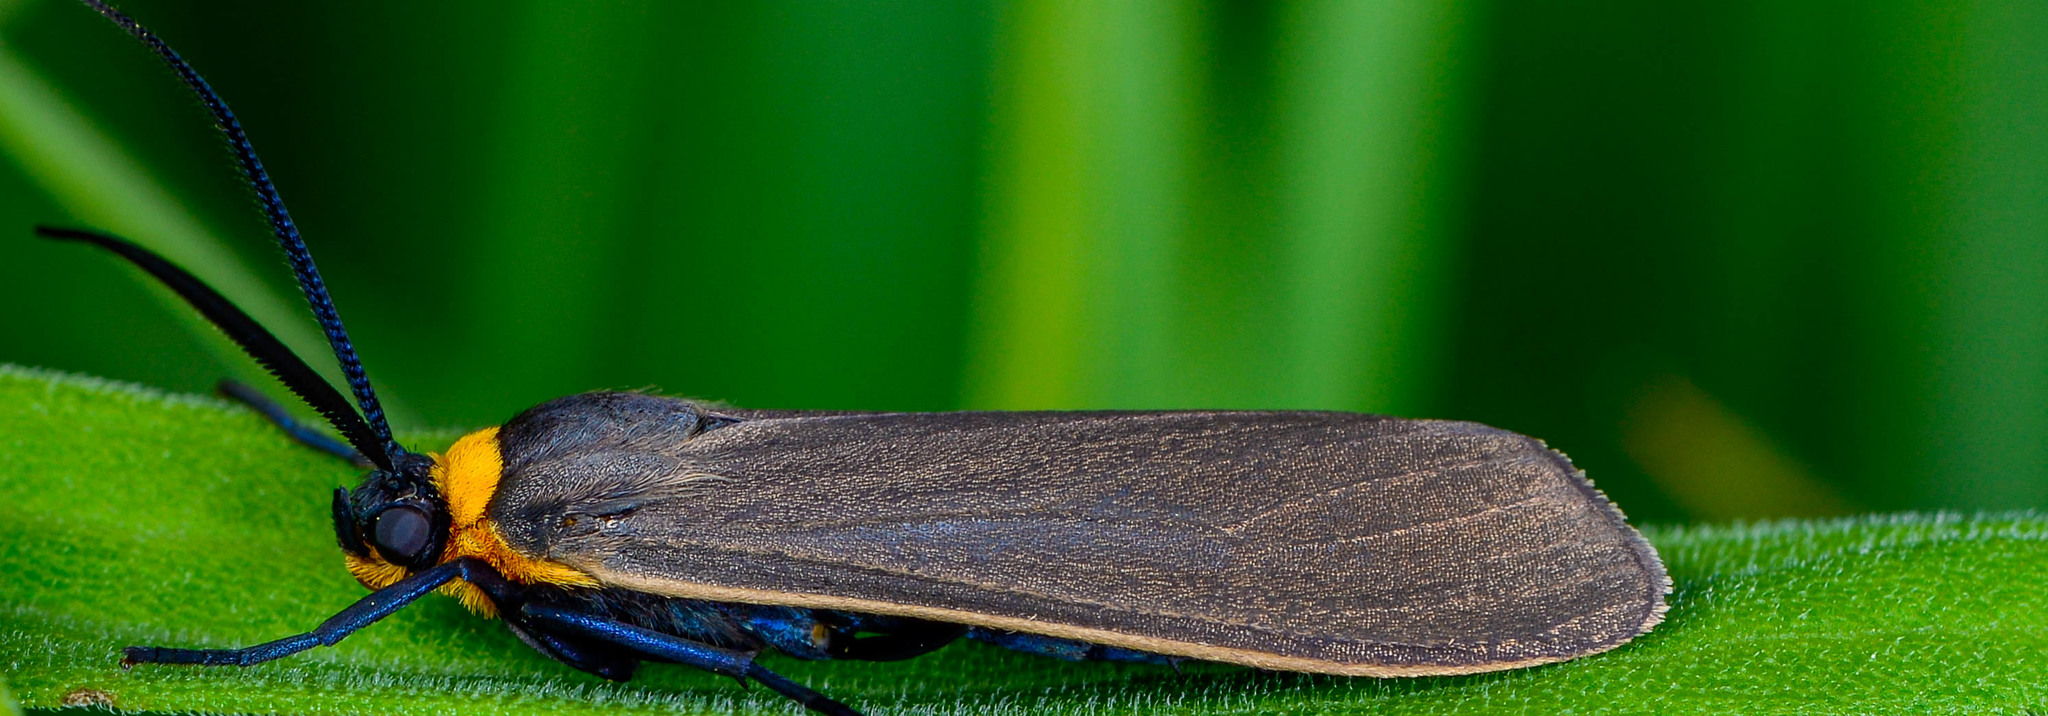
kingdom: Animalia
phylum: Arthropoda
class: Insecta
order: Lepidoptera
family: Erebidae
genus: Cisseps
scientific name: Cisseps fulvicollis
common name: Yellow-collared scape moth
